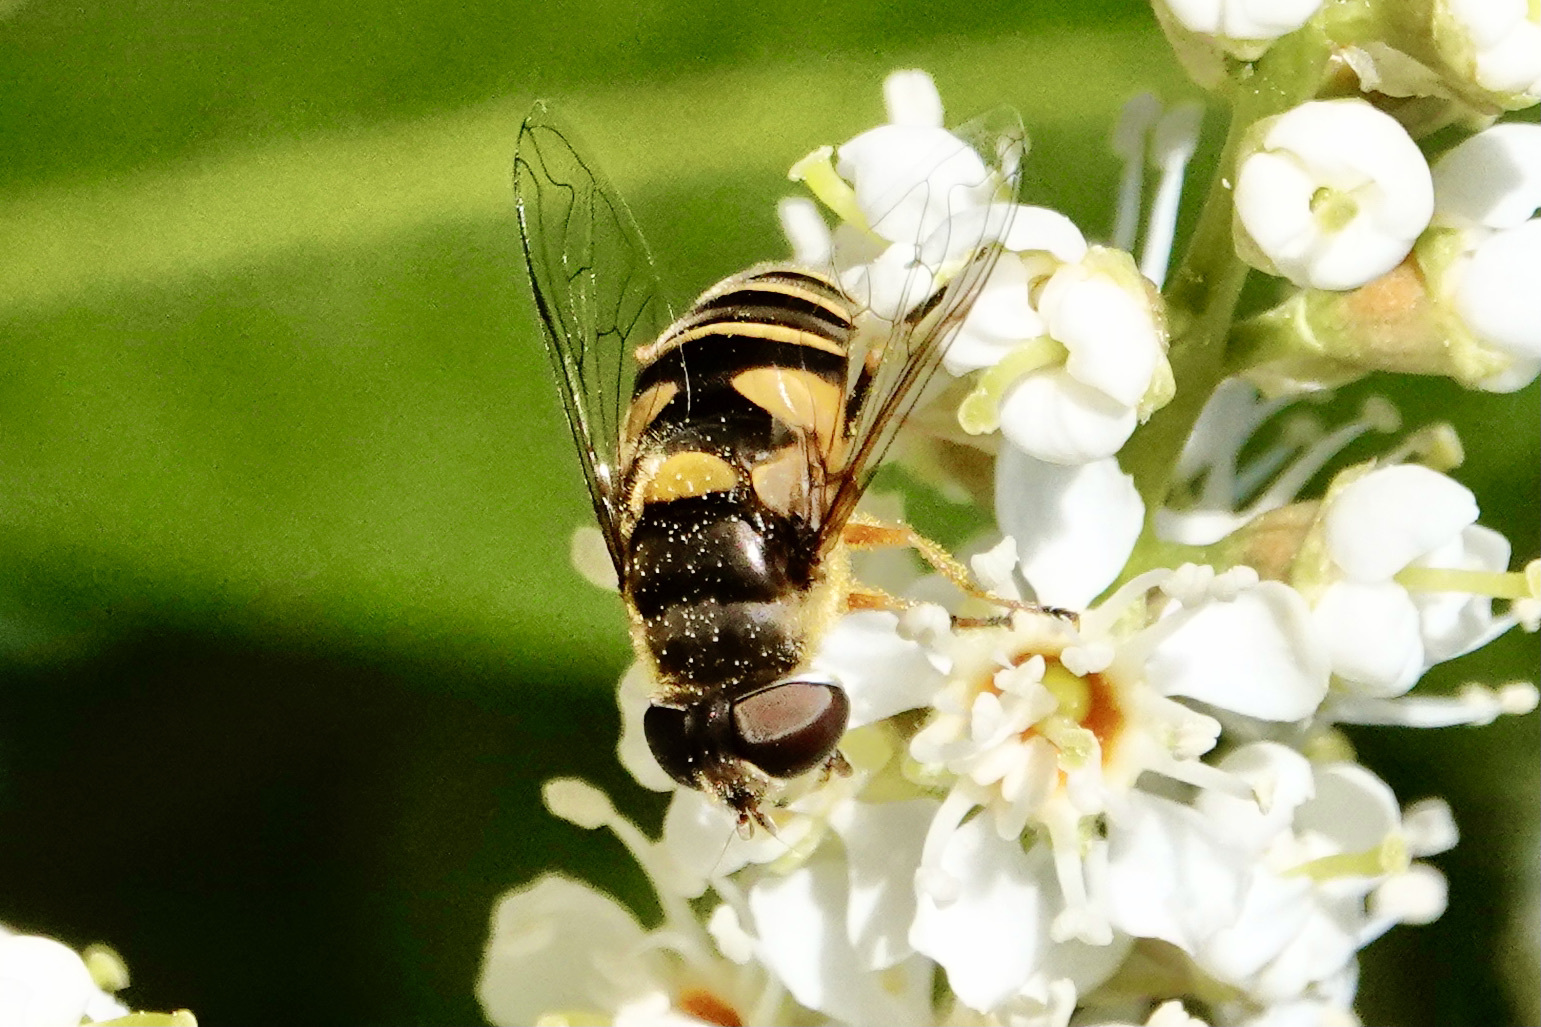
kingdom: Animalia
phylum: Arthropoda
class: Insecta
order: Diptera
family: Syrphidae
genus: Eristalis
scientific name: Eristalis transversa
